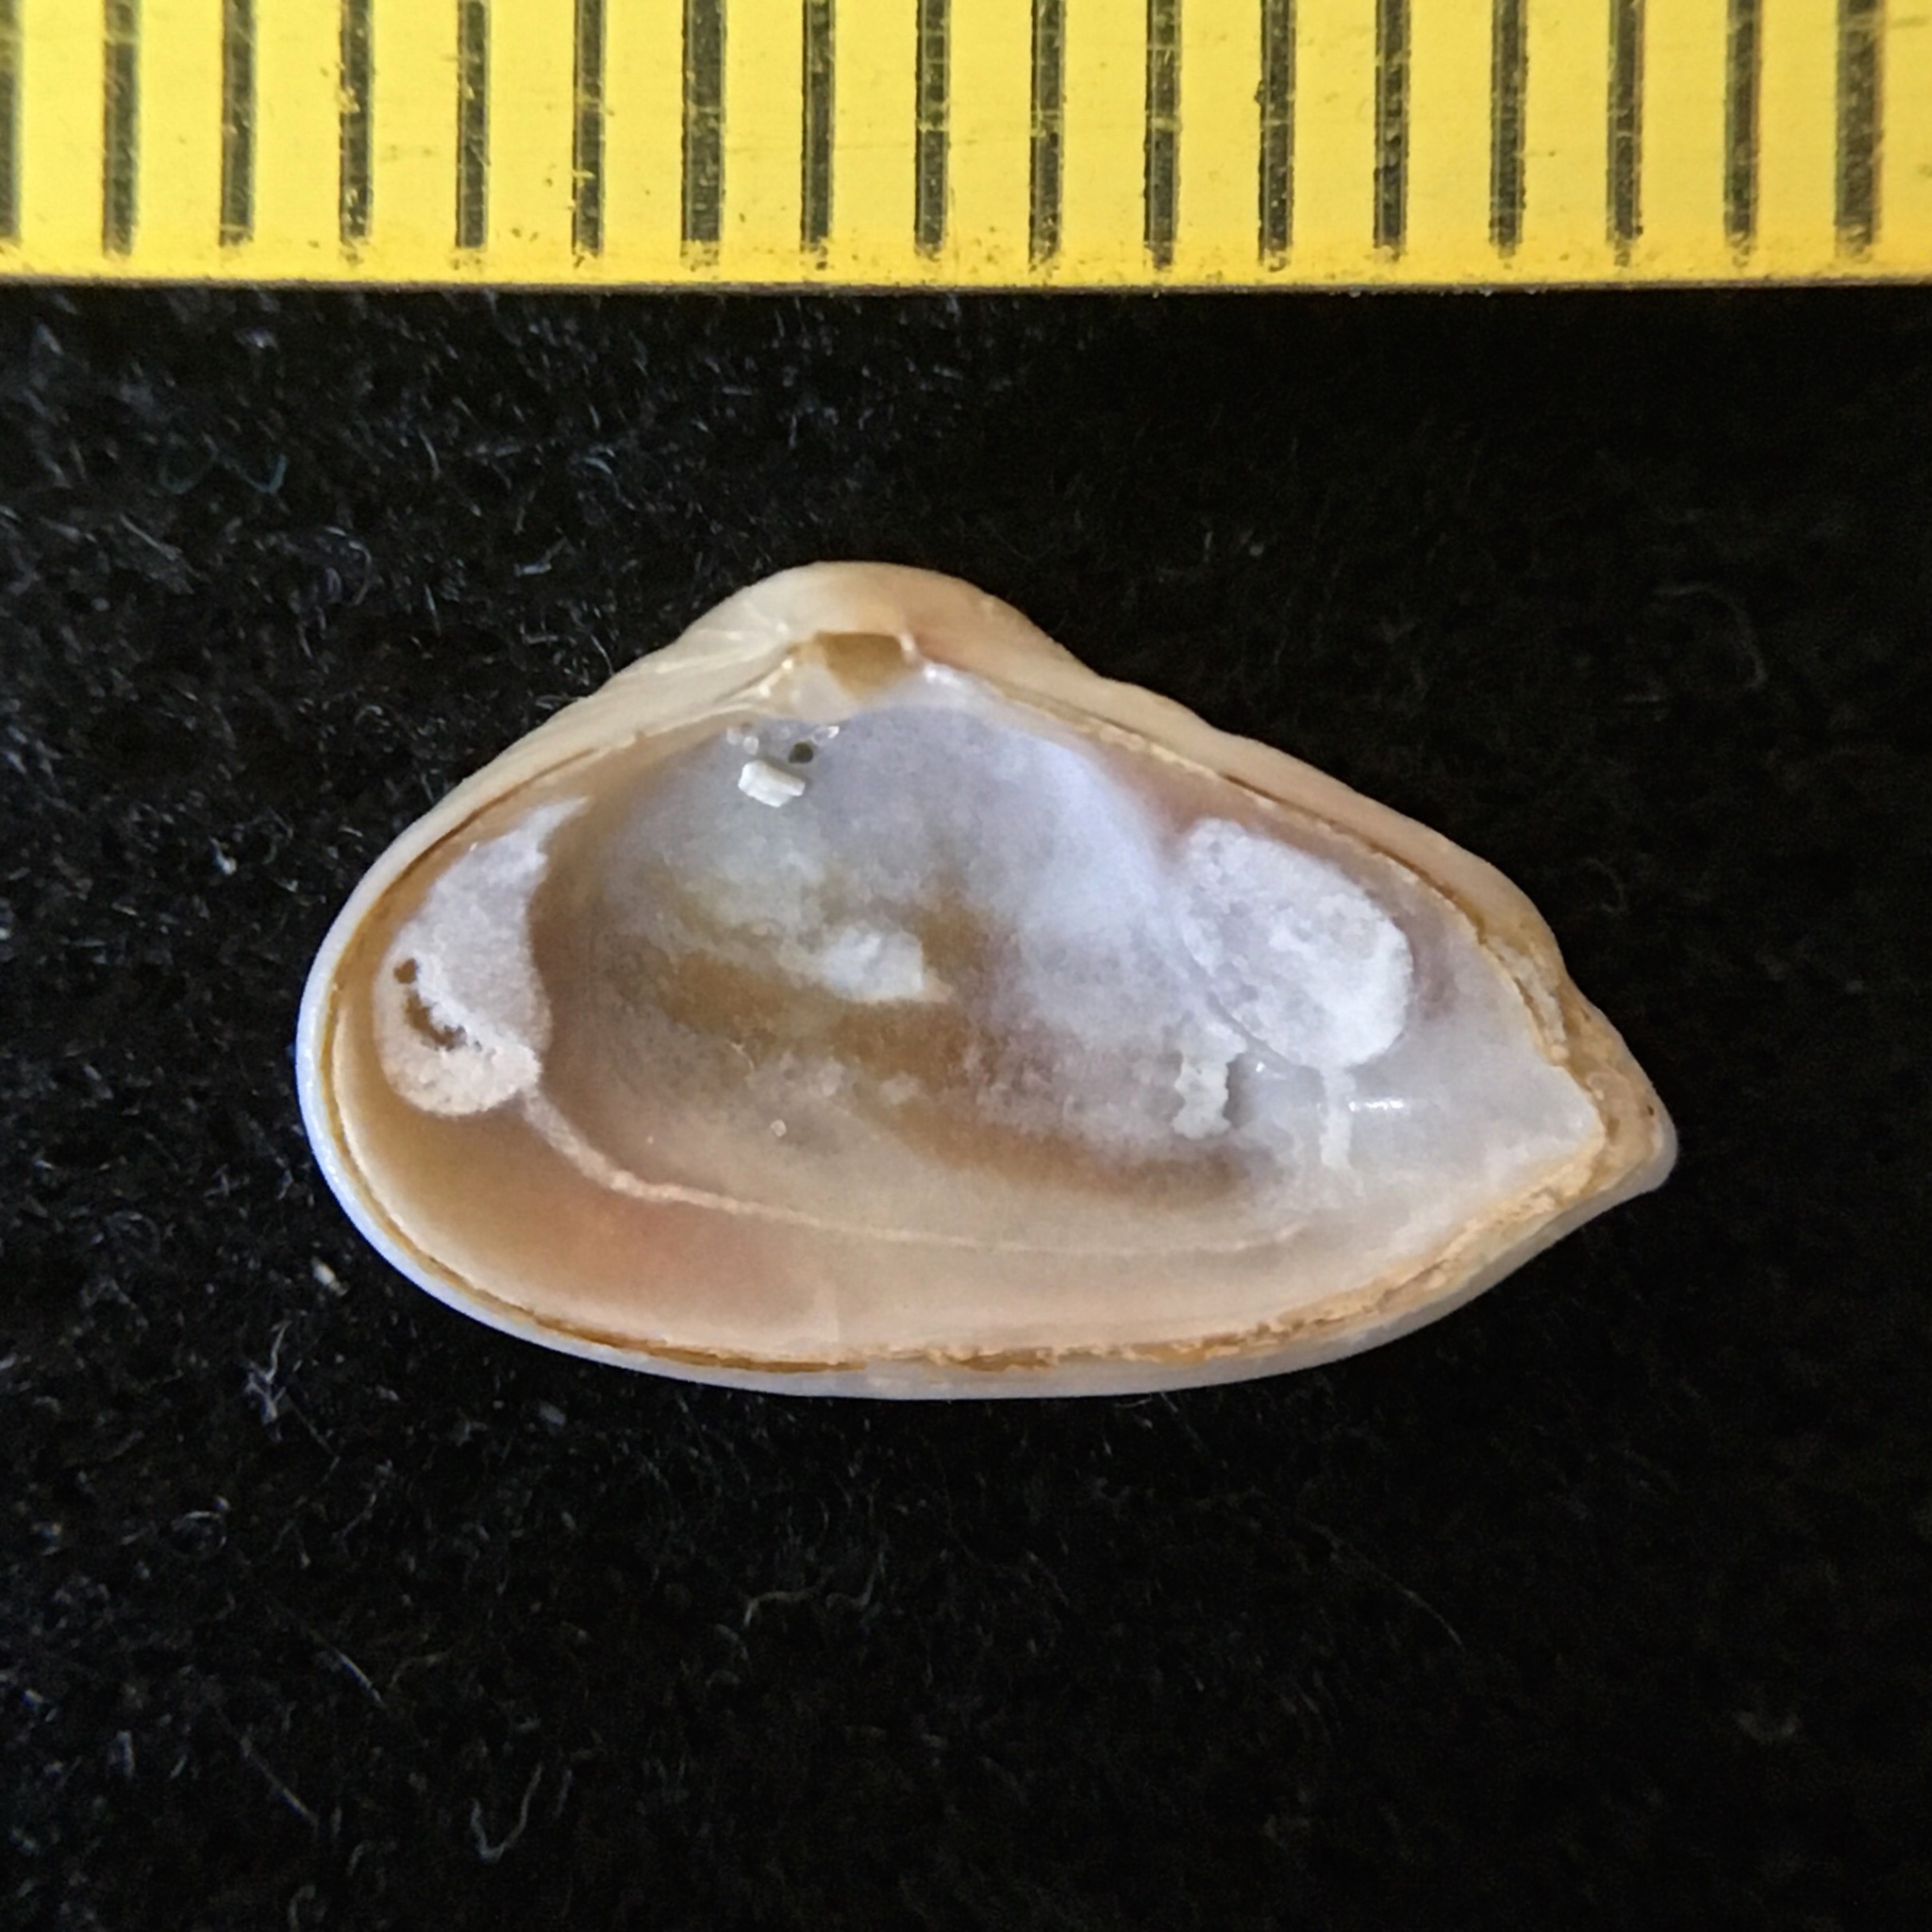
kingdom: Animalia
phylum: Mollusca
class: Bivalvia
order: Myida
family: Corbulidae
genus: Tenuicorbula
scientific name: Tenuicorbula lyoni
